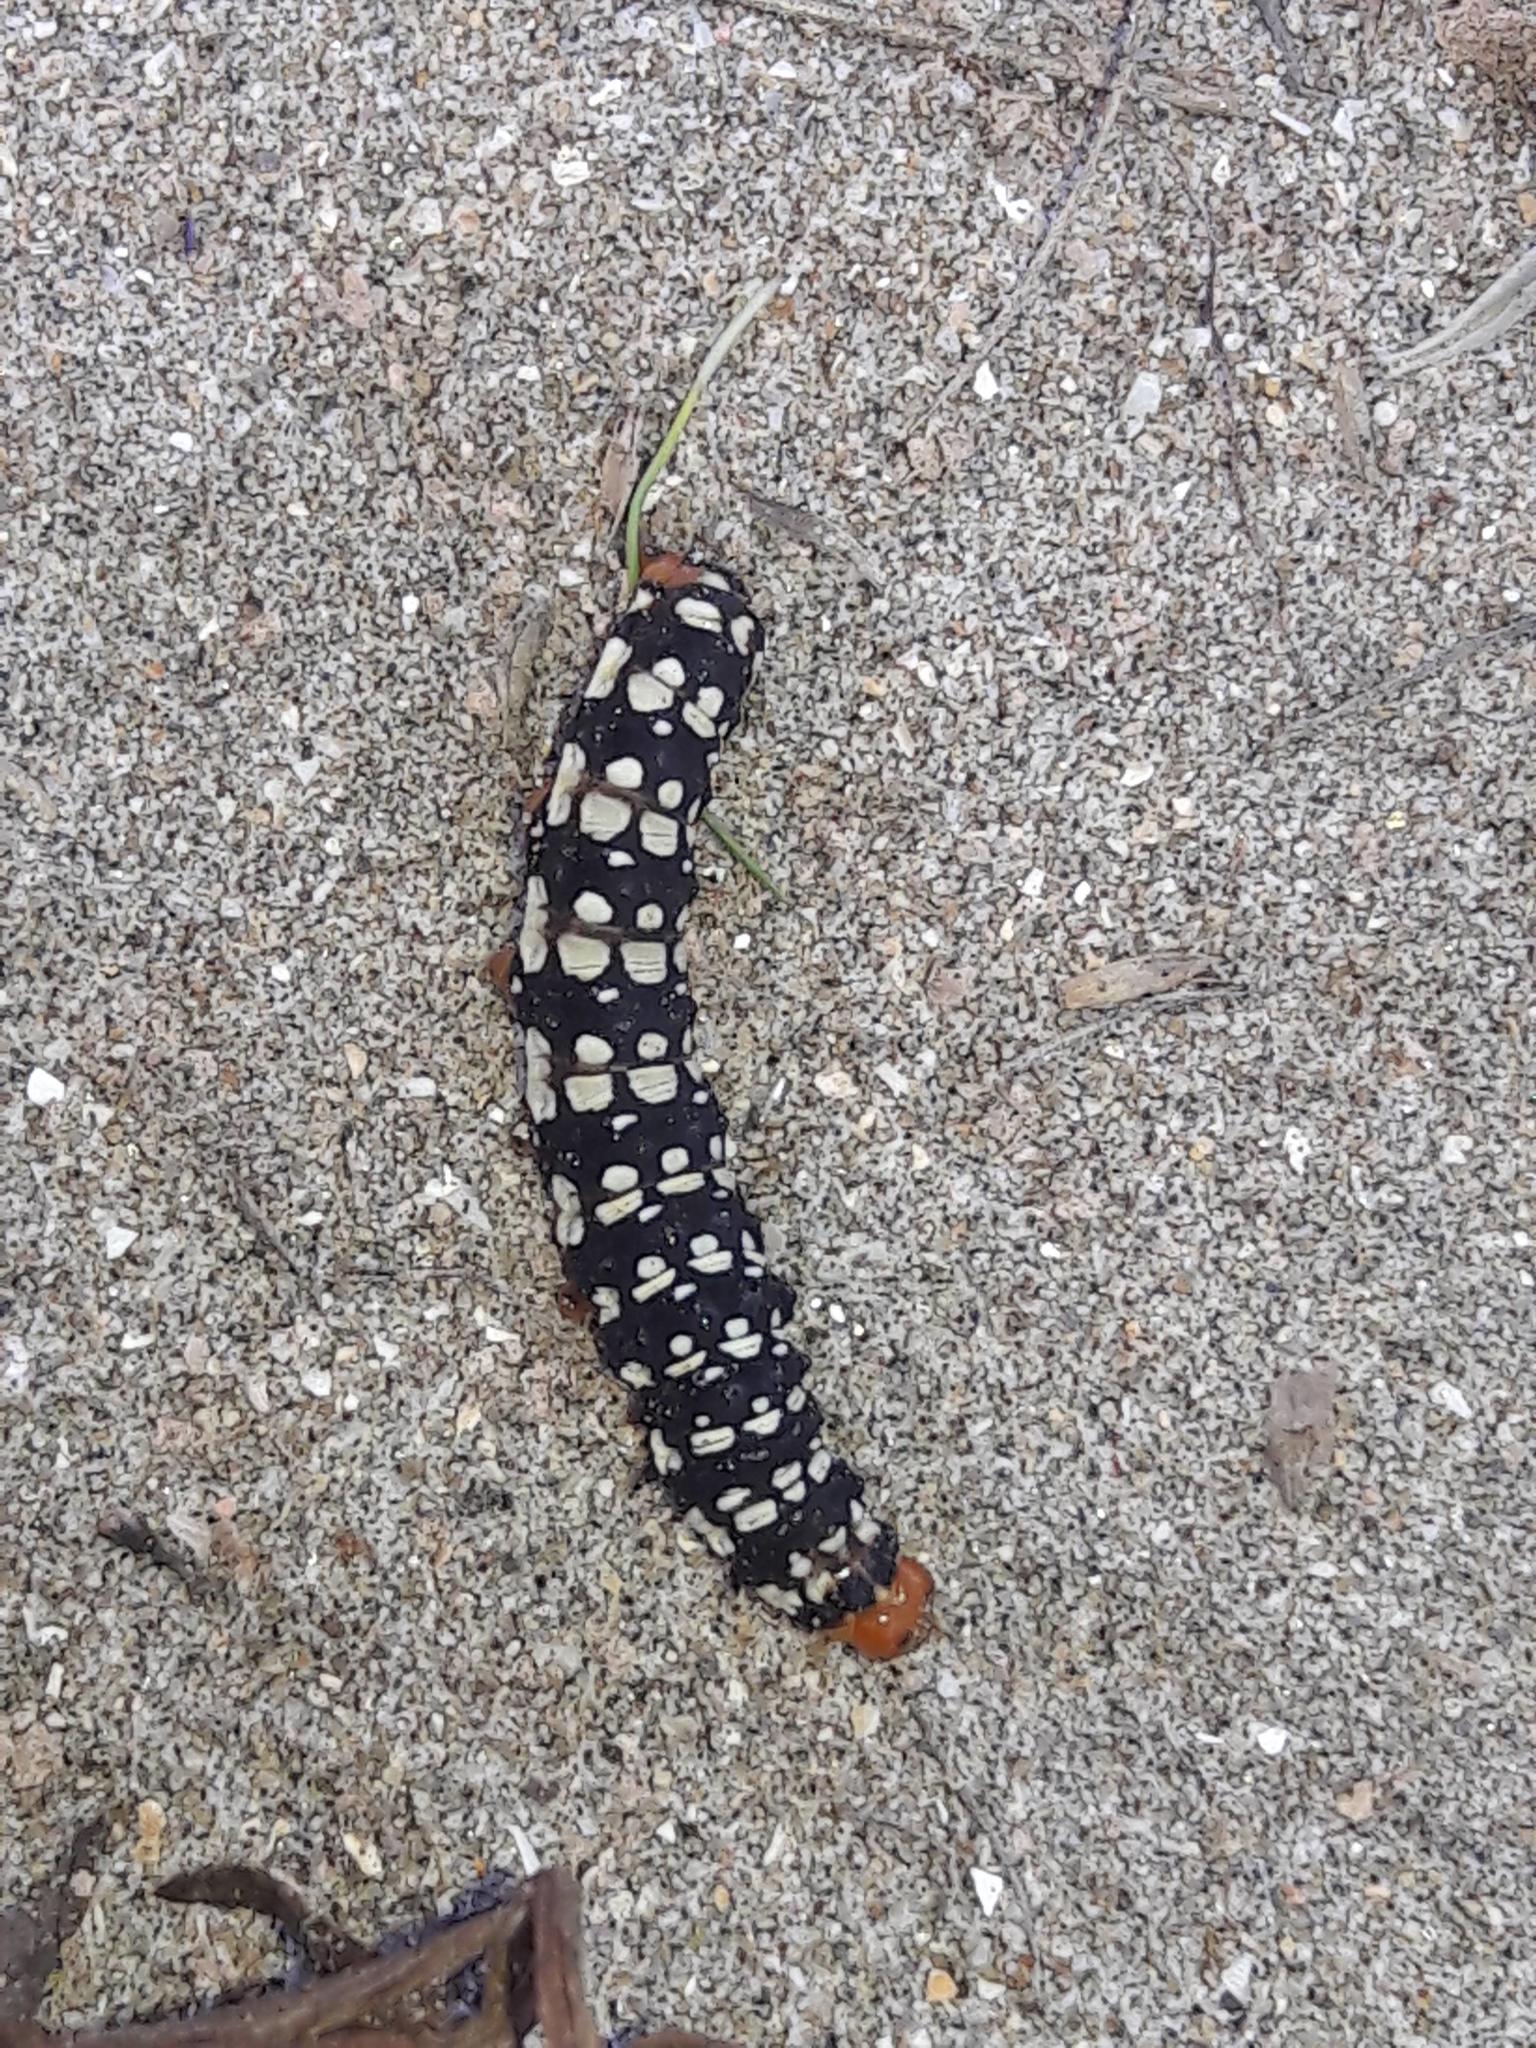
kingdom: Animalia
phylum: Arthropoda
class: Insecta
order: Lepidoptera
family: Noctuidae
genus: Brithys
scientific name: Brithys crini
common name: Kew arches
